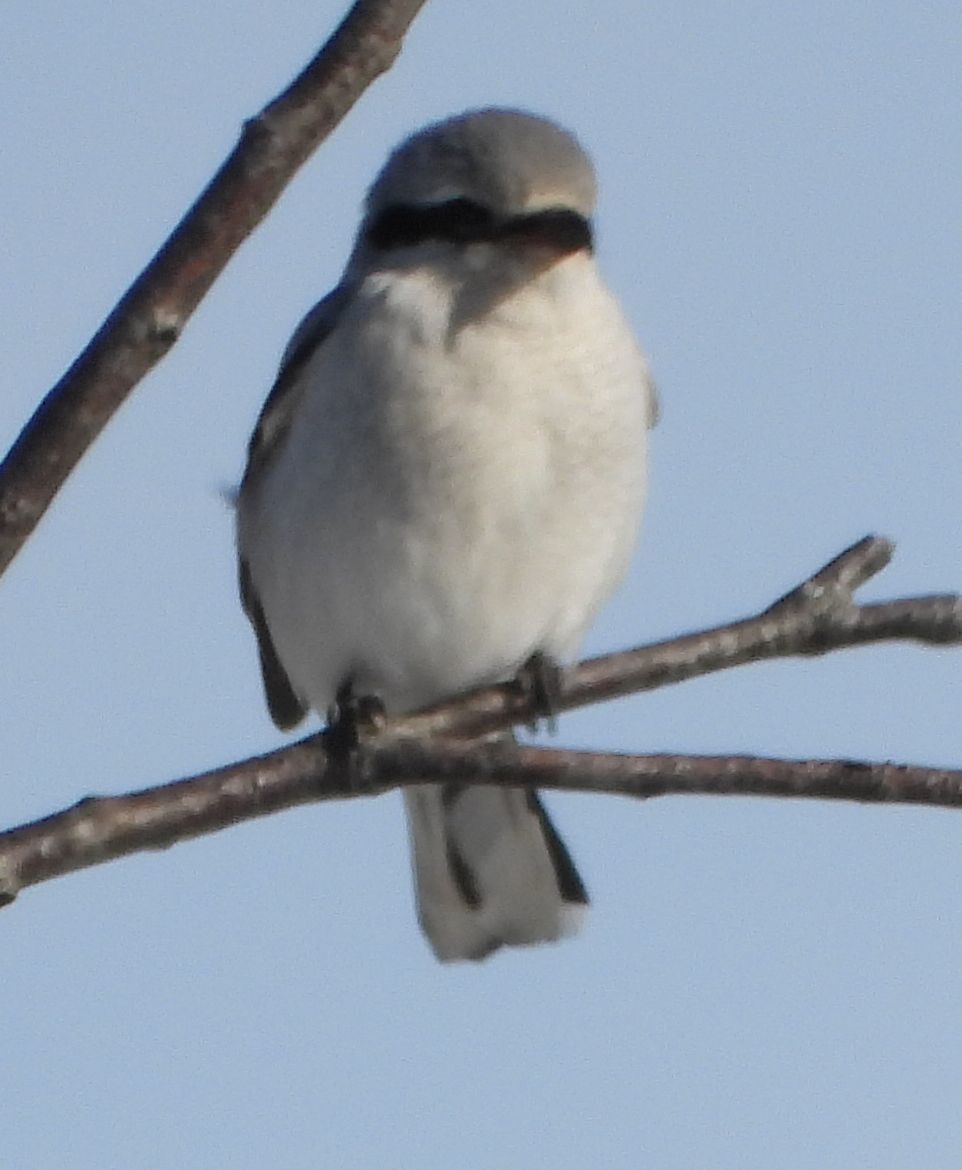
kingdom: Animalia
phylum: Chordata
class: Aves
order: Passeriformes
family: Laniidae
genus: Lanius
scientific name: Lanius borealis
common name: Northern shrike
